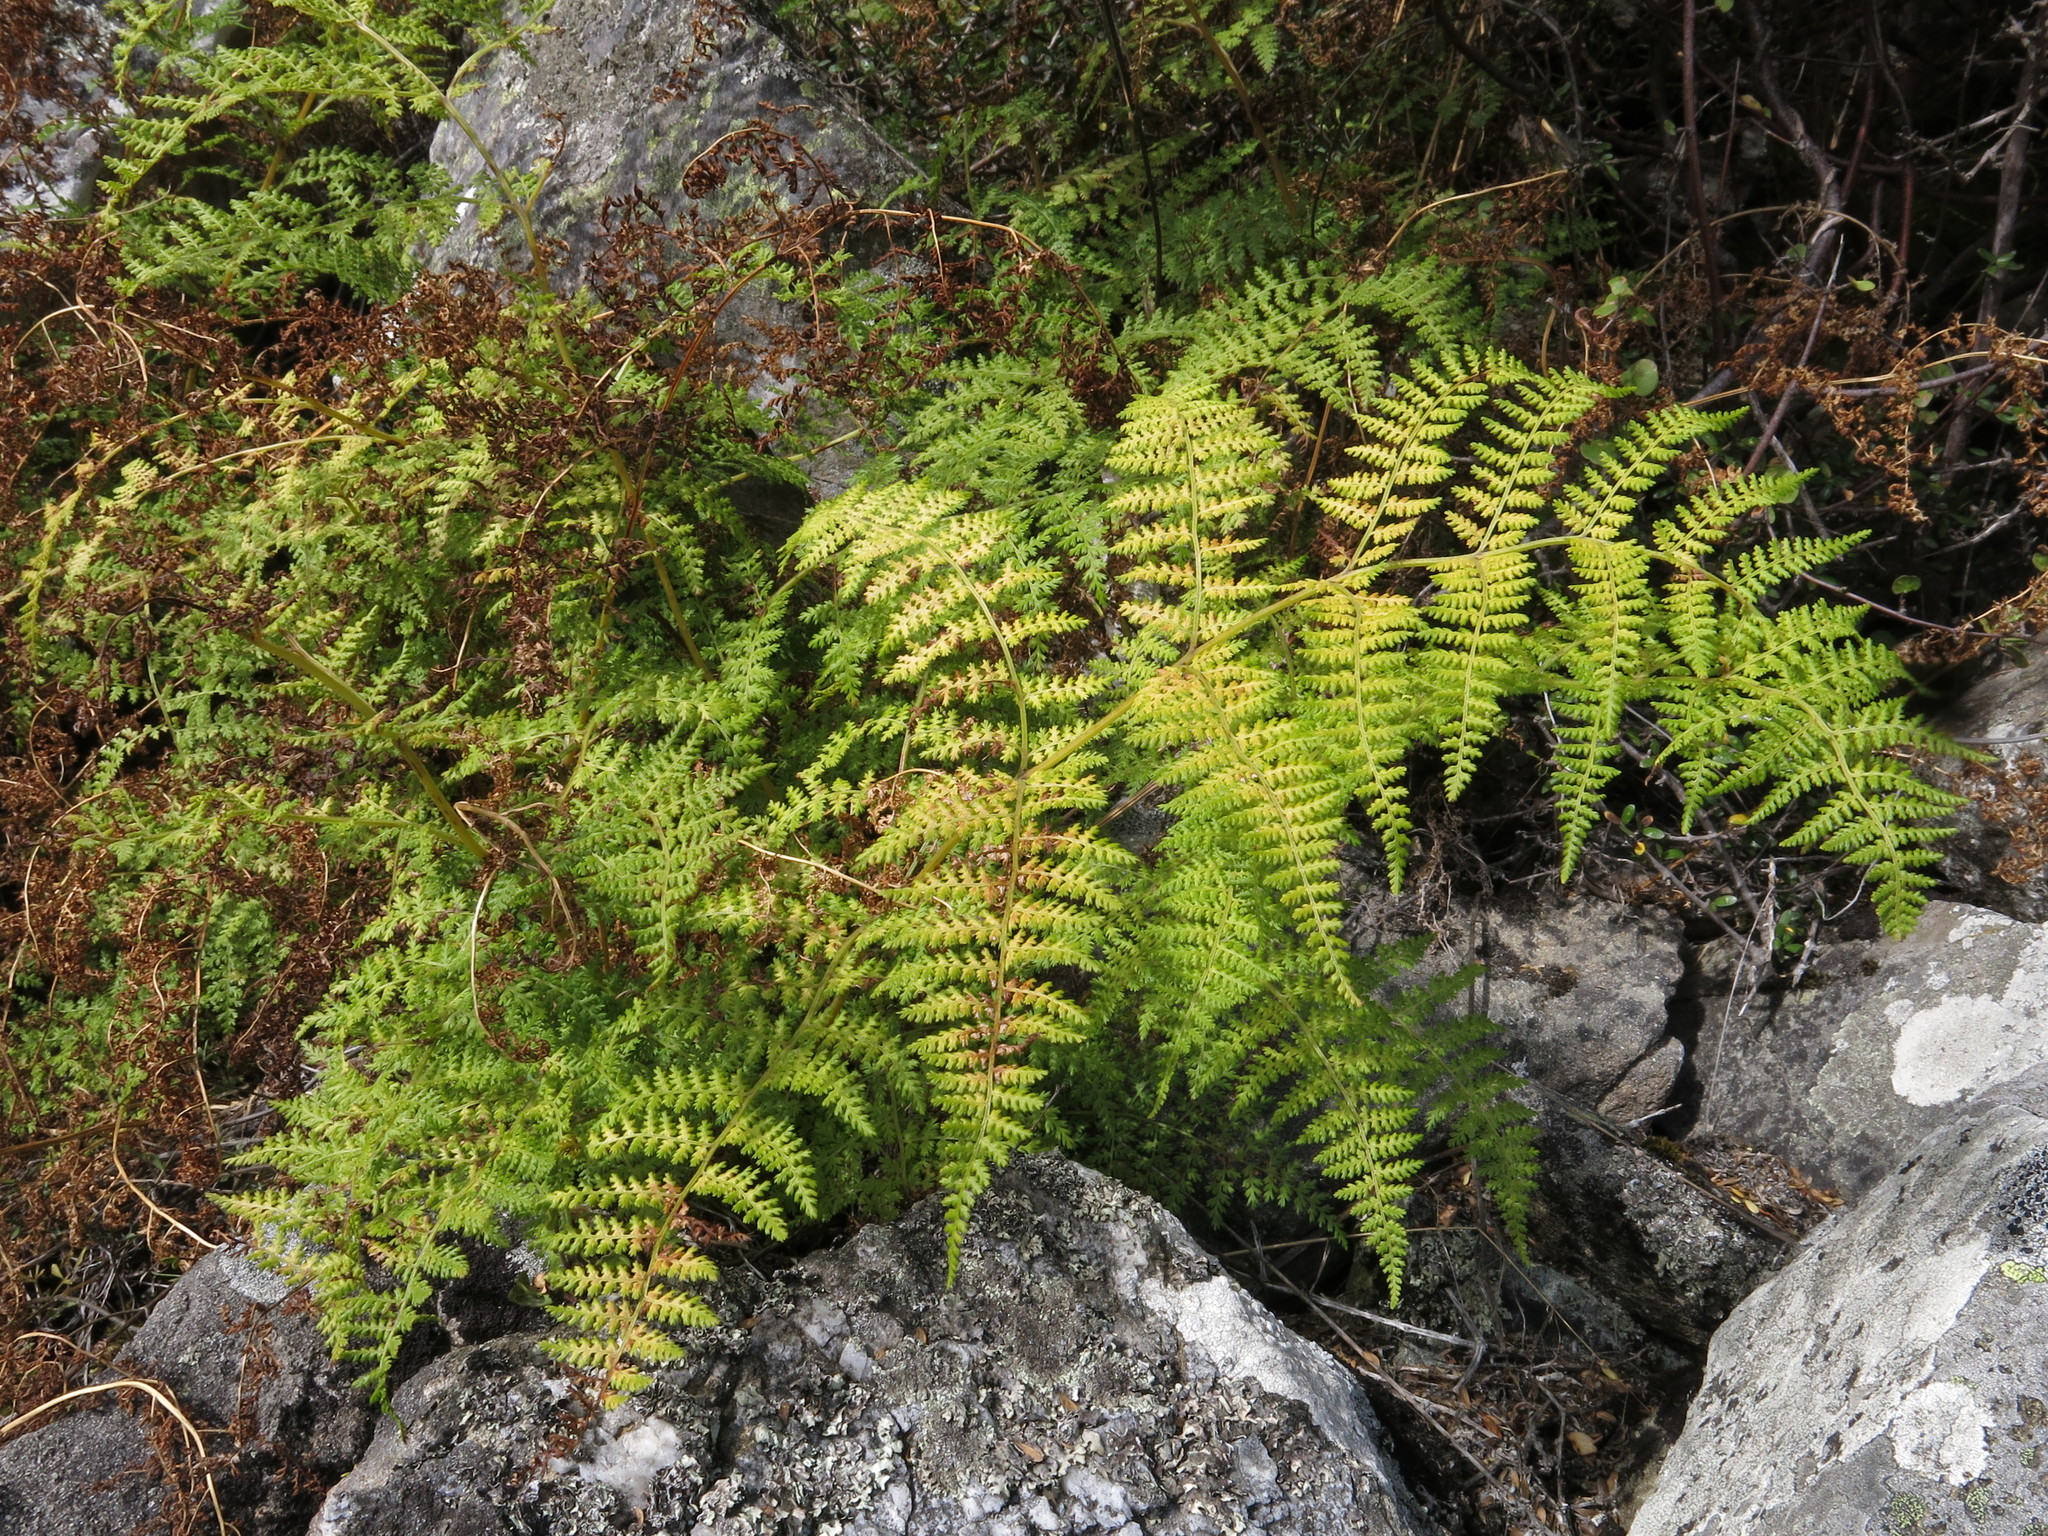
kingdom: Plantae
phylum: Tracheophyta
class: Polypodiopsida
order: Polypodiales
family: Dennstaedtiaceae
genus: Hypolepis
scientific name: Hypolepis millefolium
